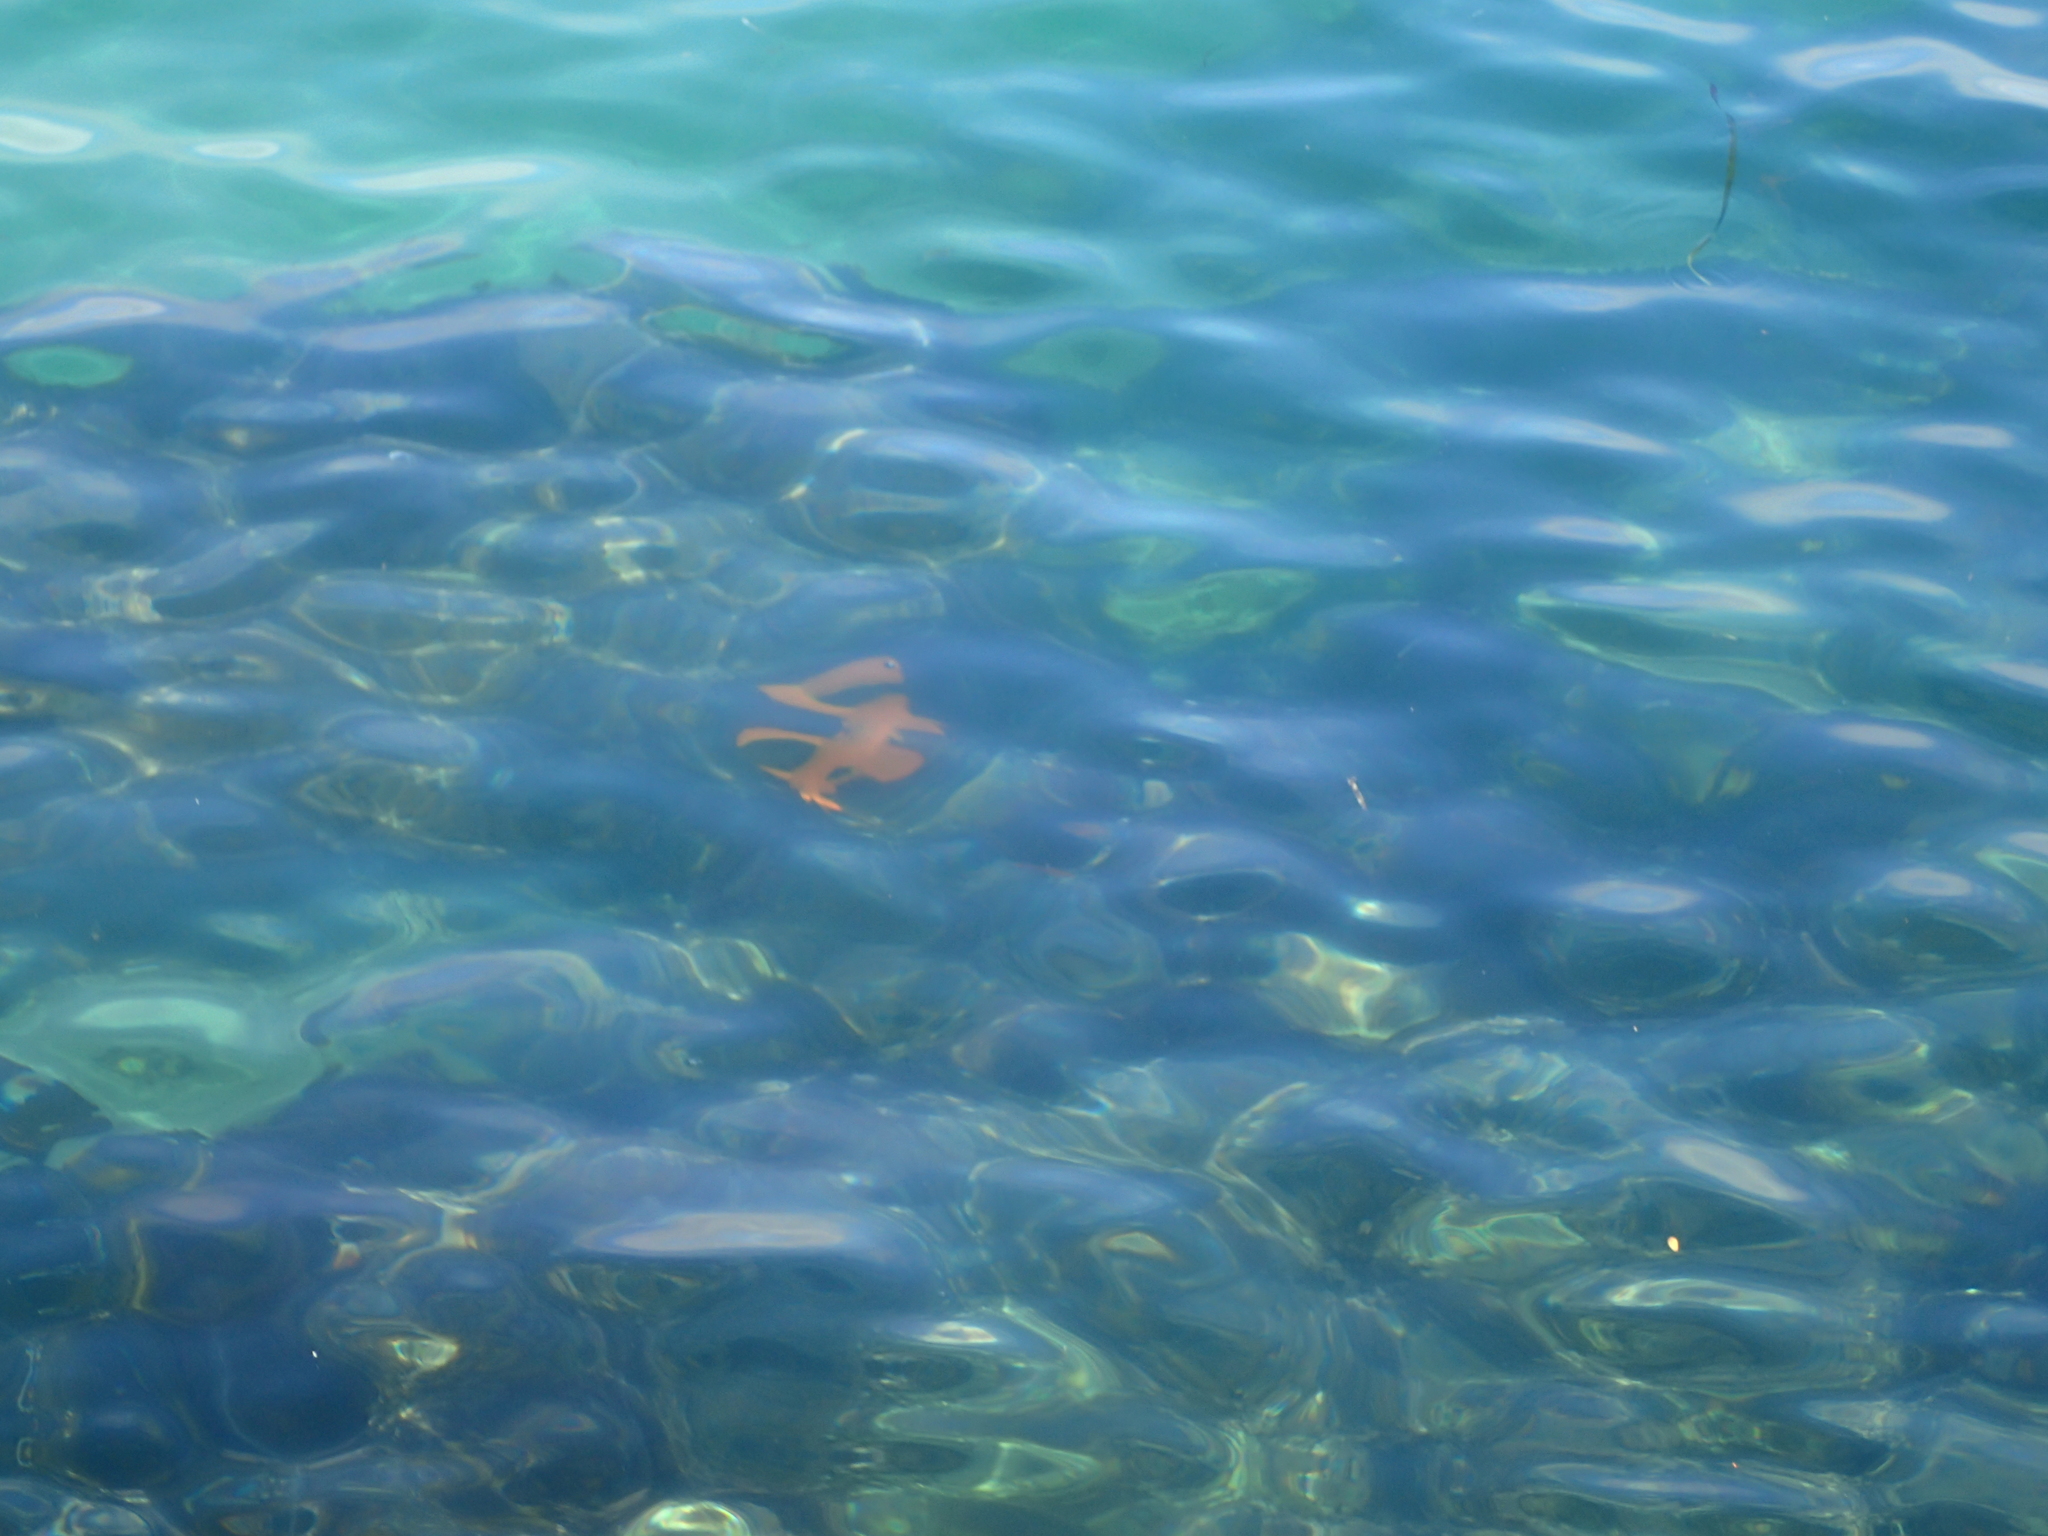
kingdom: Animalia
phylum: Chordata
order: Perciformes
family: Pomacentridae
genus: Hypsypops
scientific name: Hypsypops rubicundus
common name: Garibaldi
